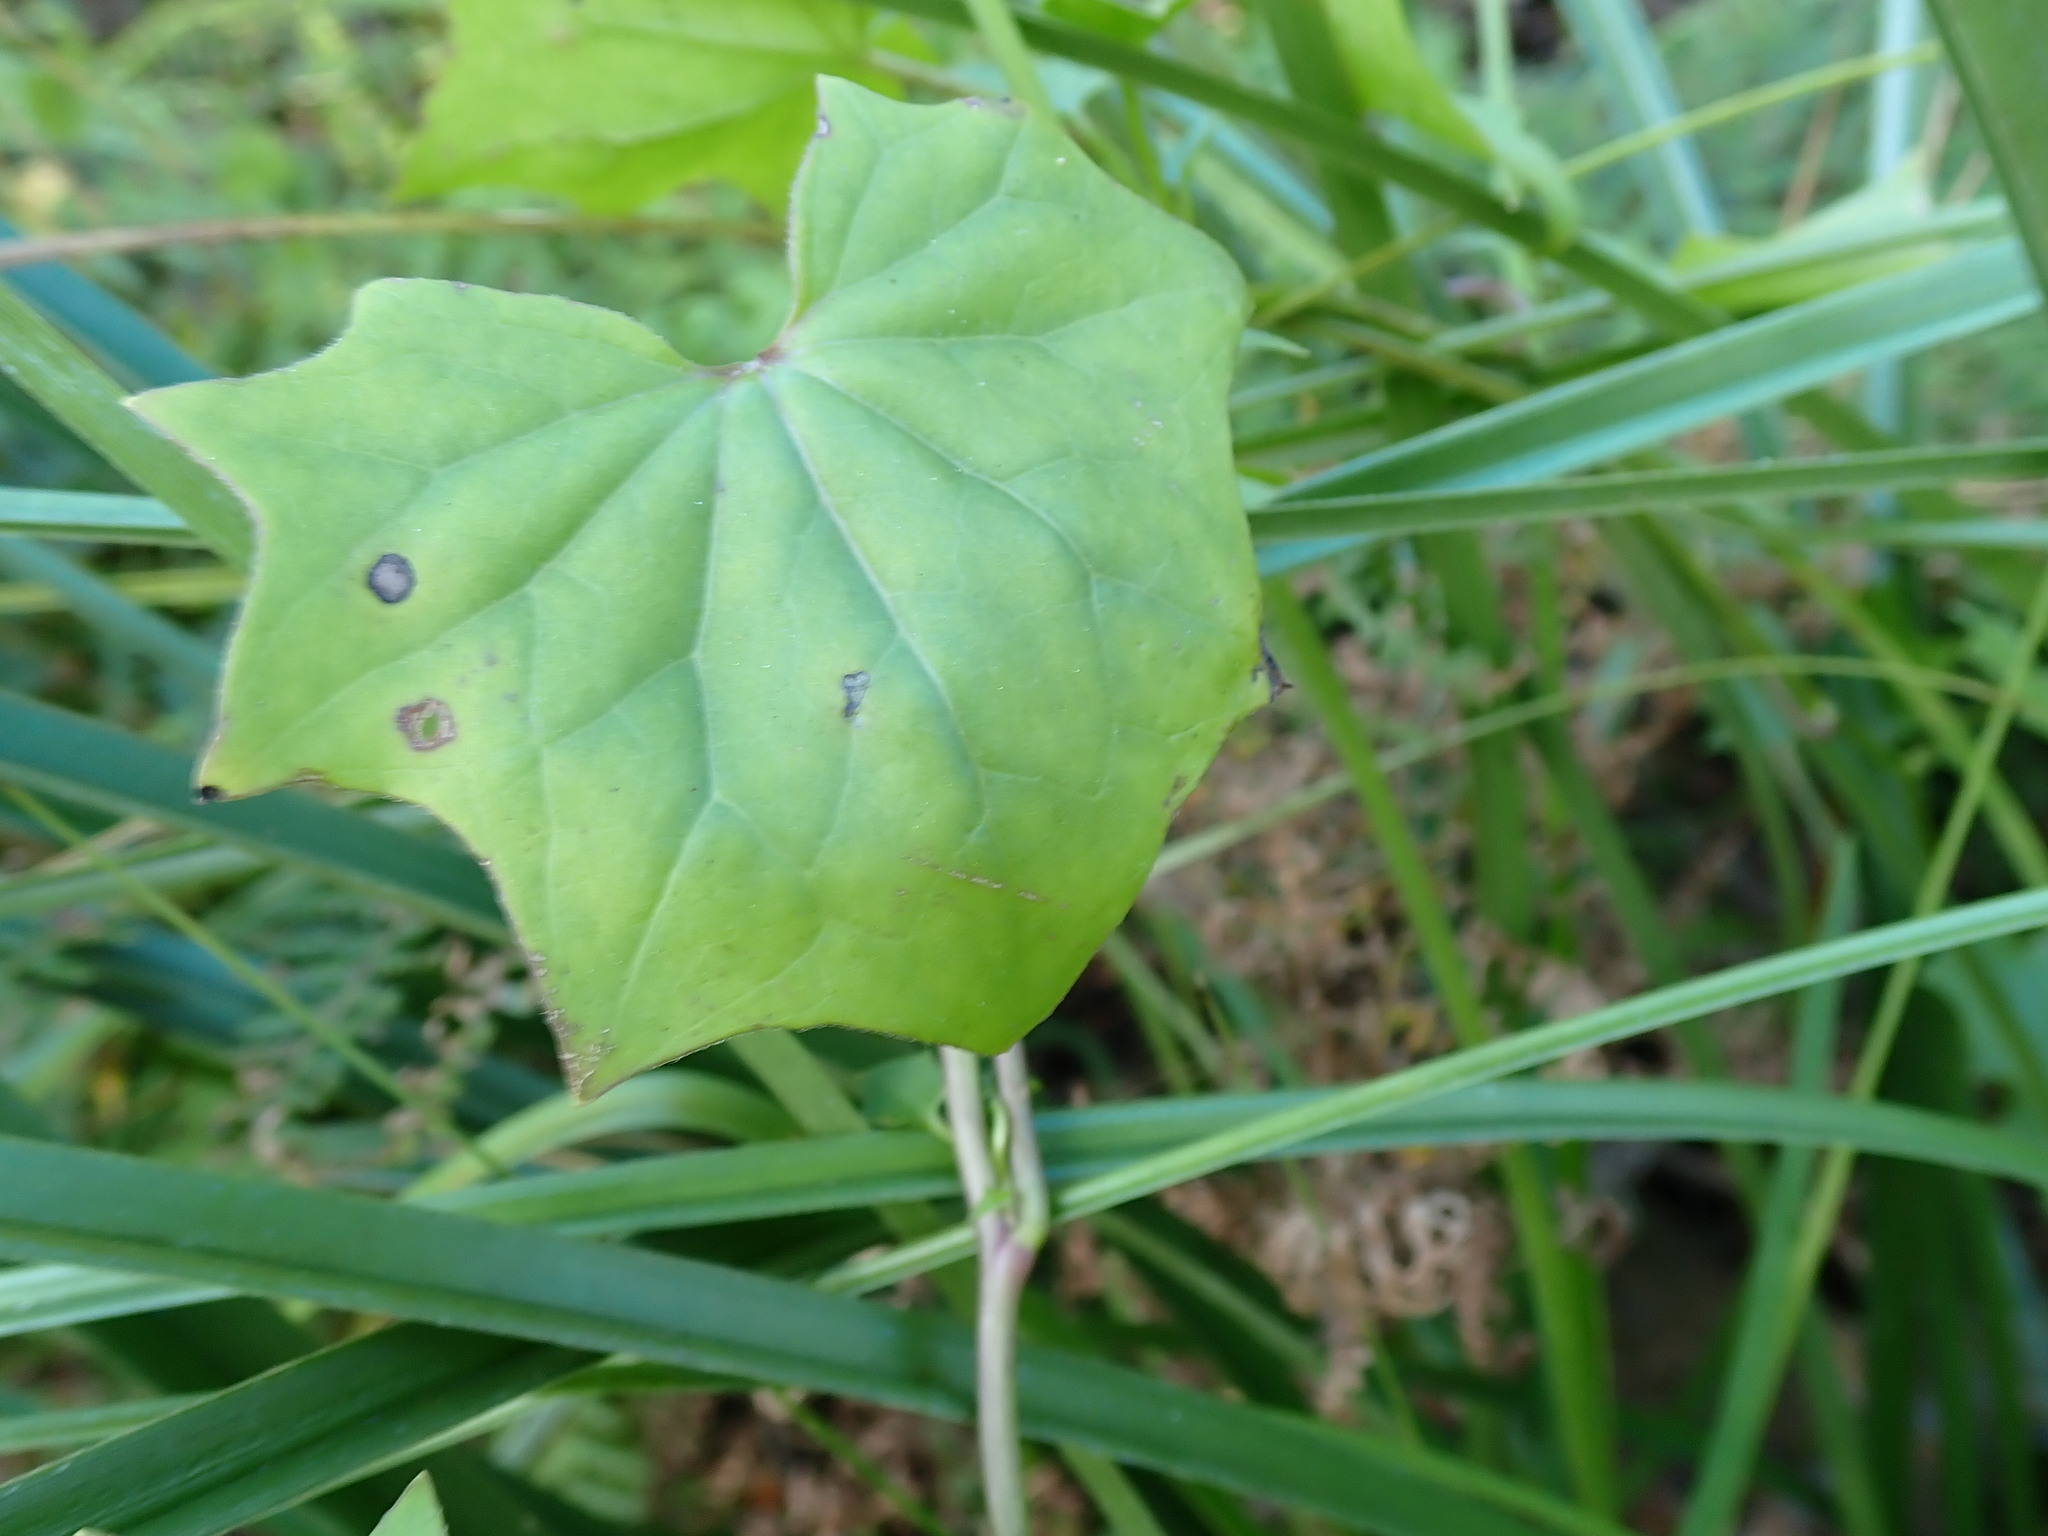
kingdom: Plantae
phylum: Tracheophyta
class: Magnoliopsida
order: Asterales
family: Asteraceae
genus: Delairea
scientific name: Delairea odorata
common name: Cape-ivy
